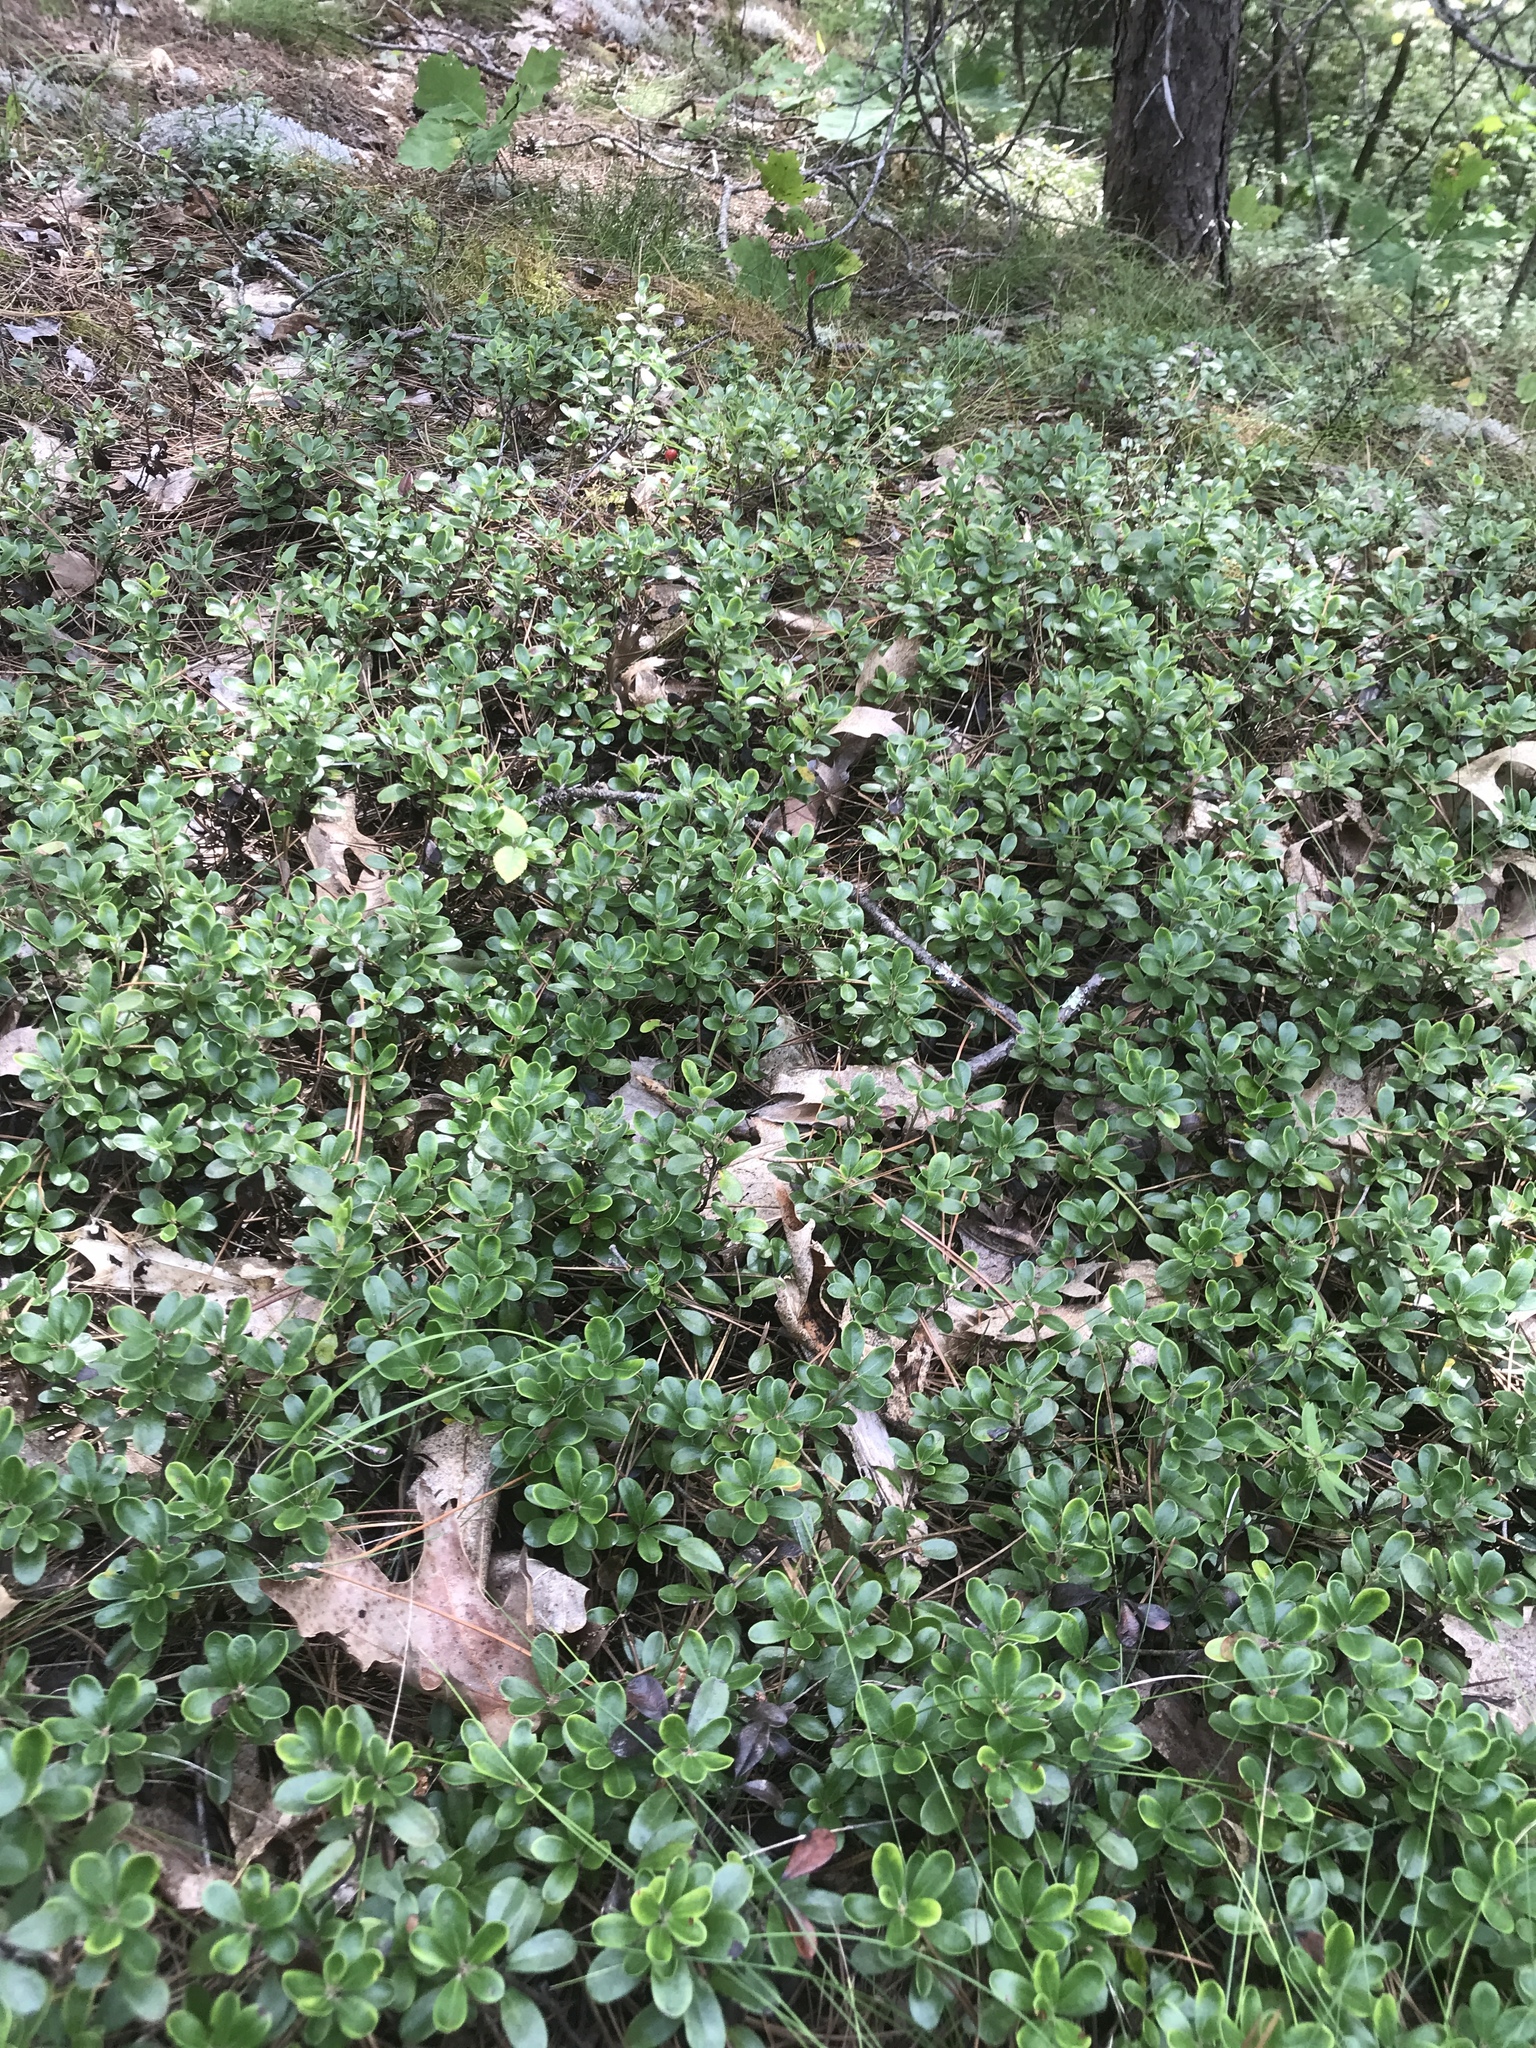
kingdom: Plantae
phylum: Tracheophyta
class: Magnoliopsida
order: Ericales
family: Ericaceae
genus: Arctostaphylos
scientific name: Arctostaphylos uva-ursi
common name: Bearberry
